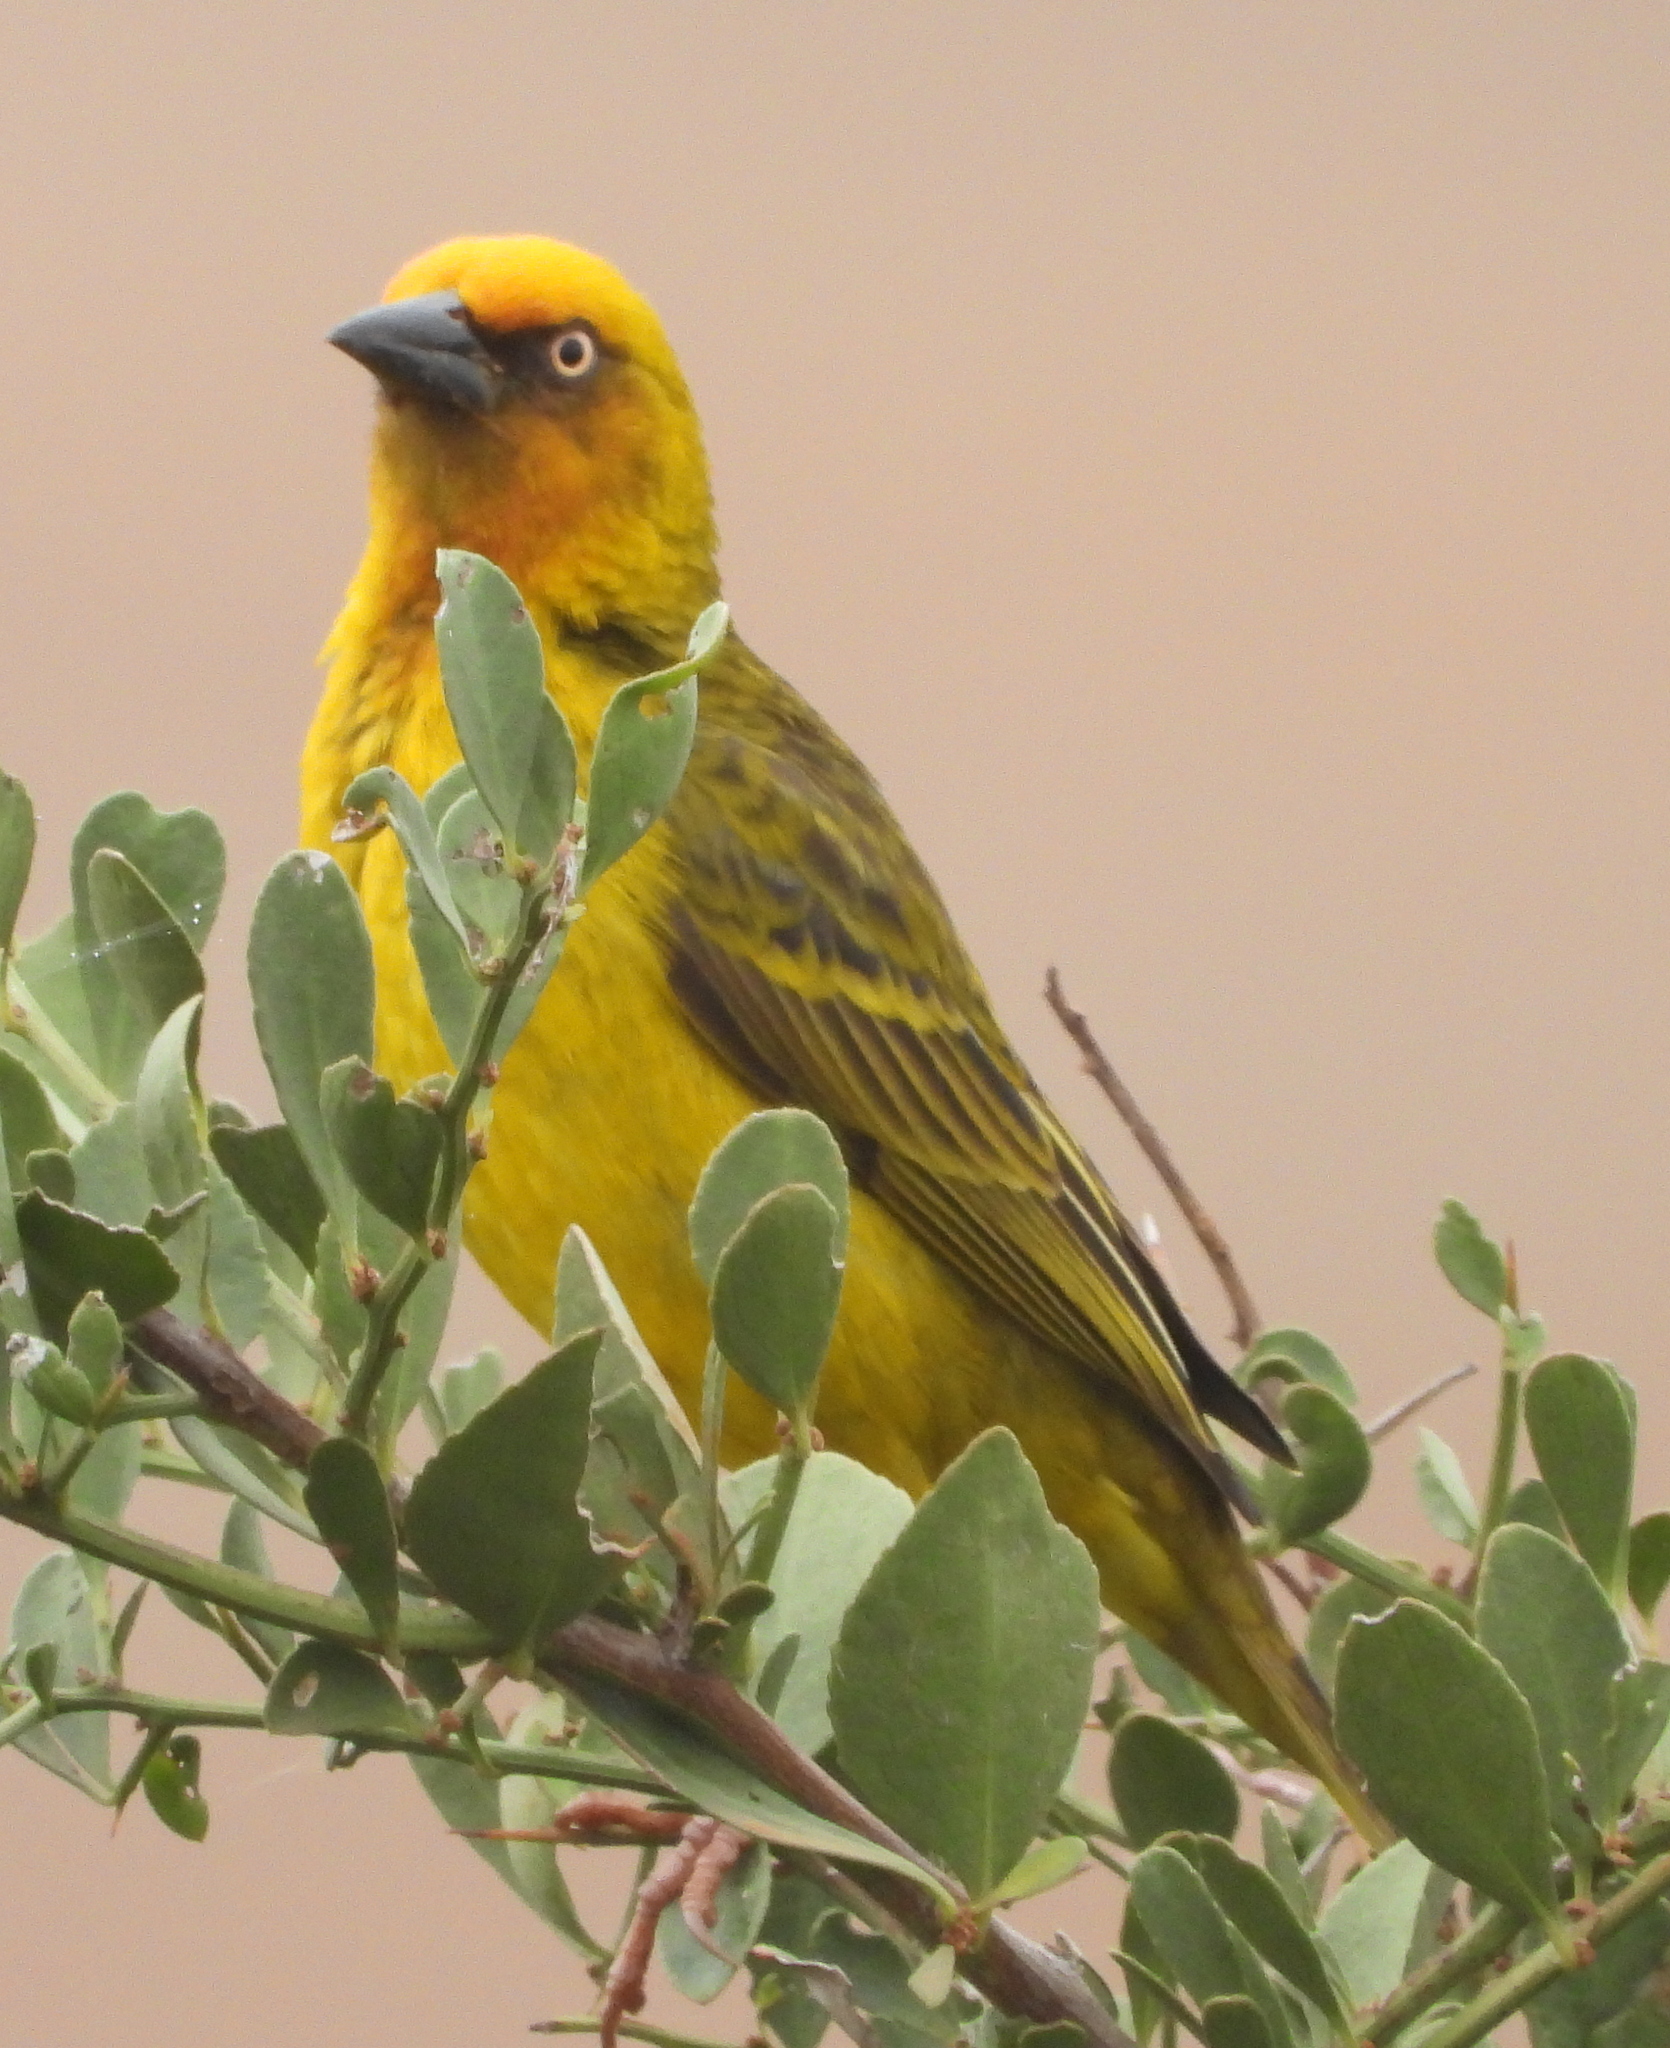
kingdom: Animalia
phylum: Chordata
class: Aves
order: Passeriformes
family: Ploceidae
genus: Ploceus
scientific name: Ploceus capensis
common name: Cape weaver
